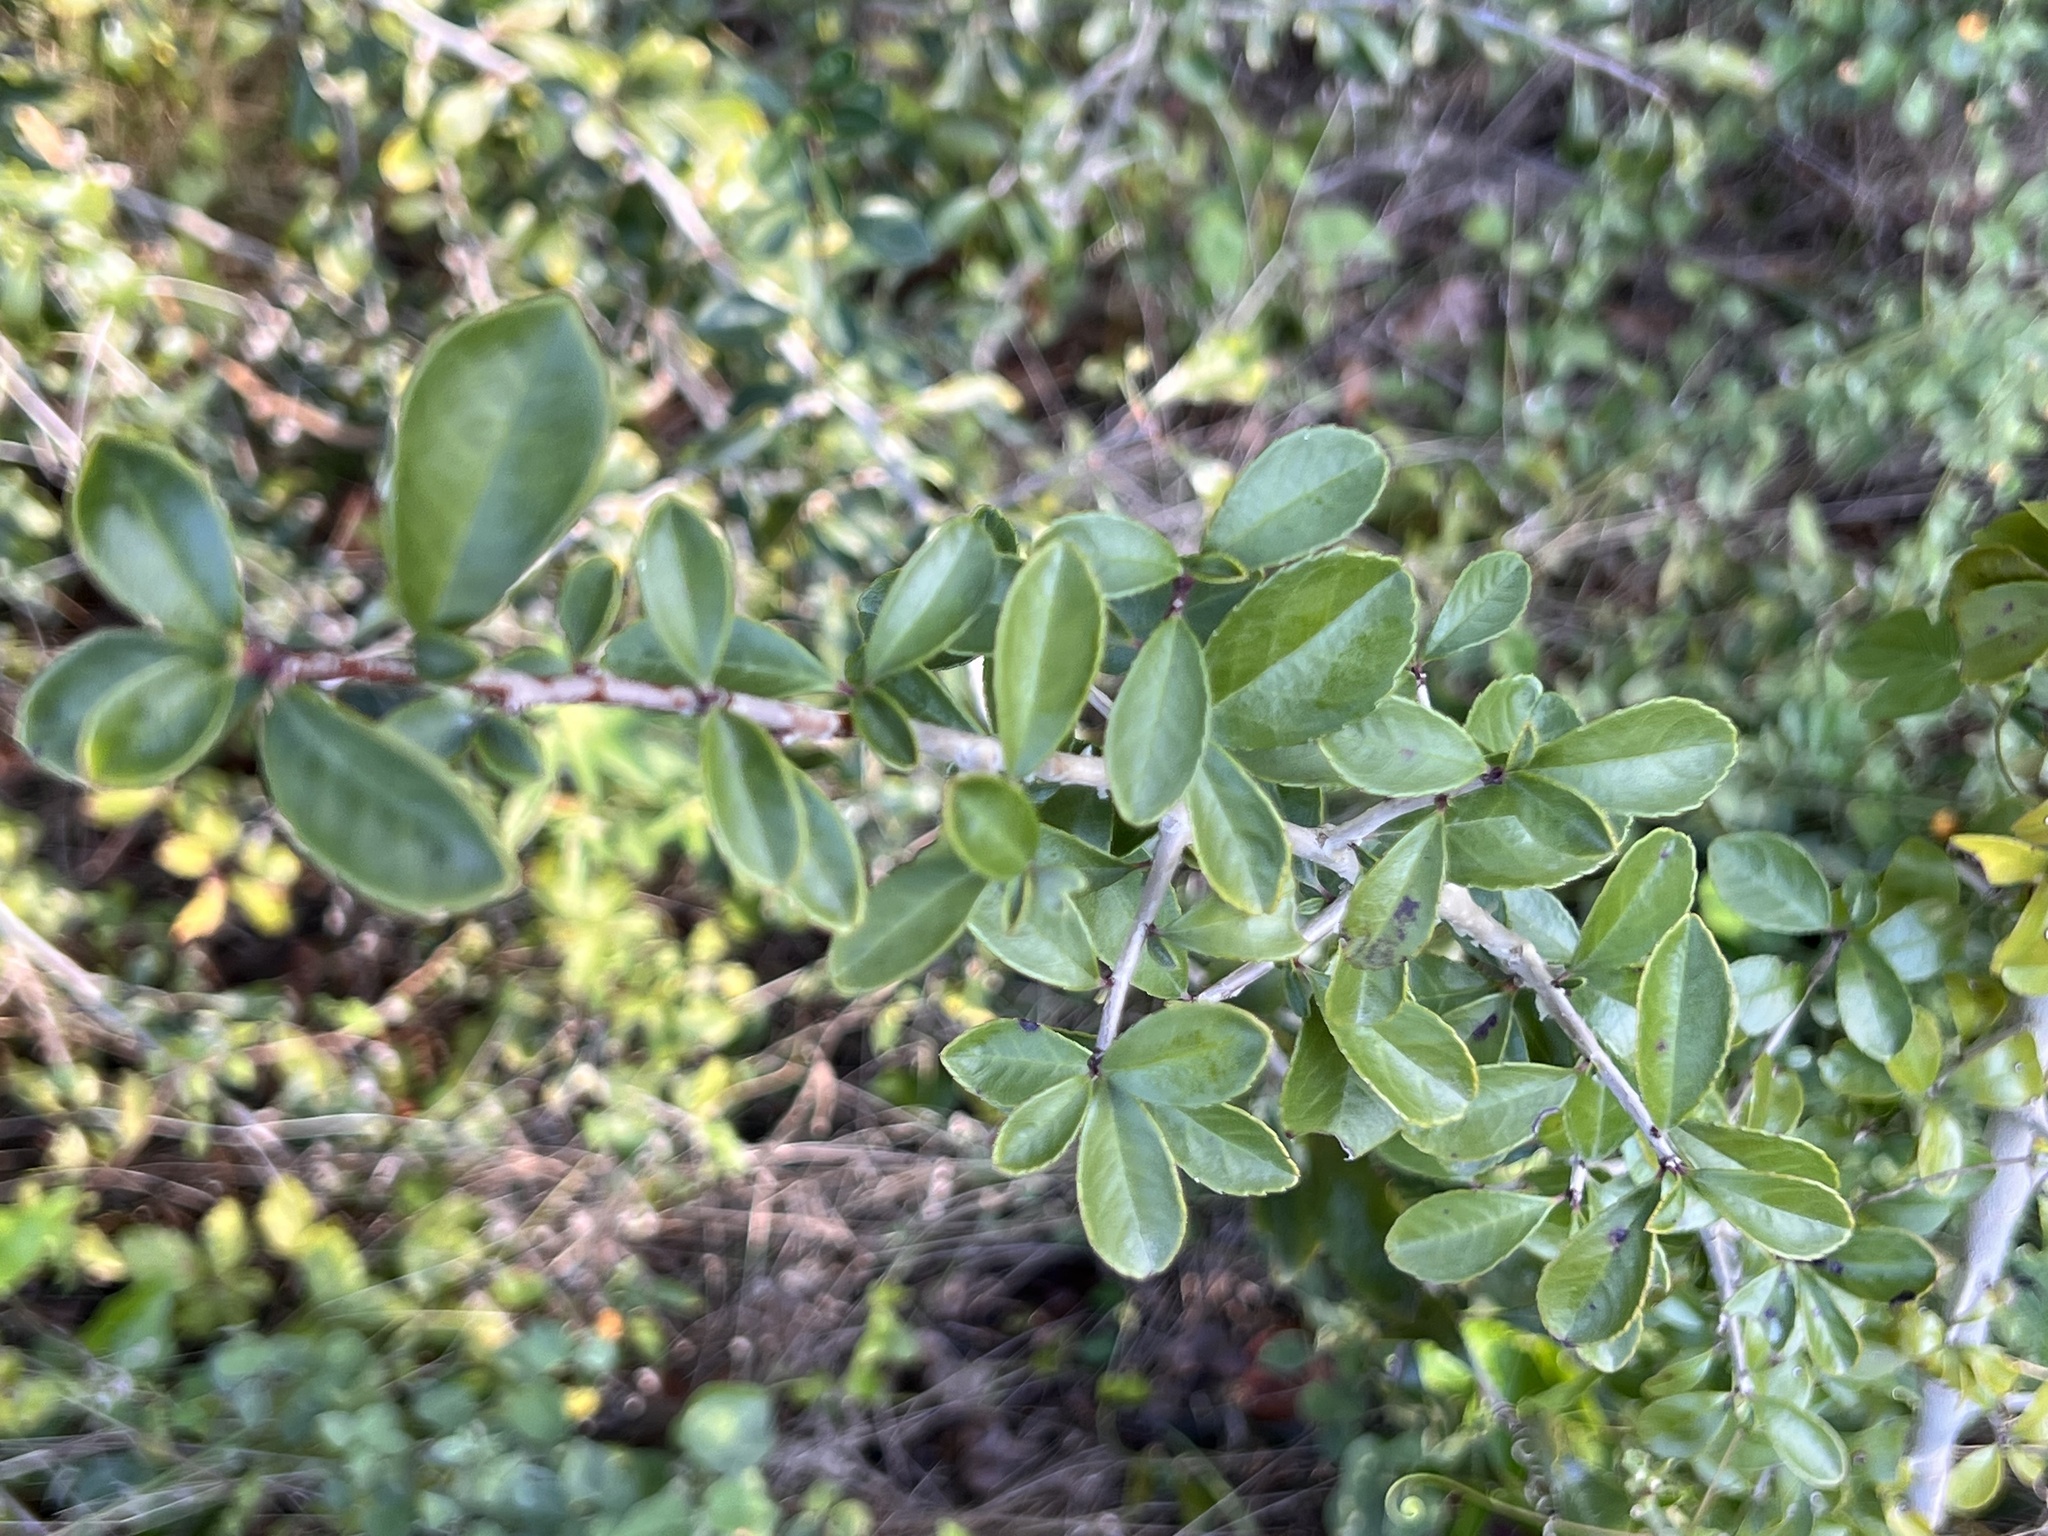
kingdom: Plantae
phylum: Tracheophyta
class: Magnoliopsida
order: Aquifoliales
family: Aquifoliaceae
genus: Ilex
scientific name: Ilex vomitoria
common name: Yaupon holly
